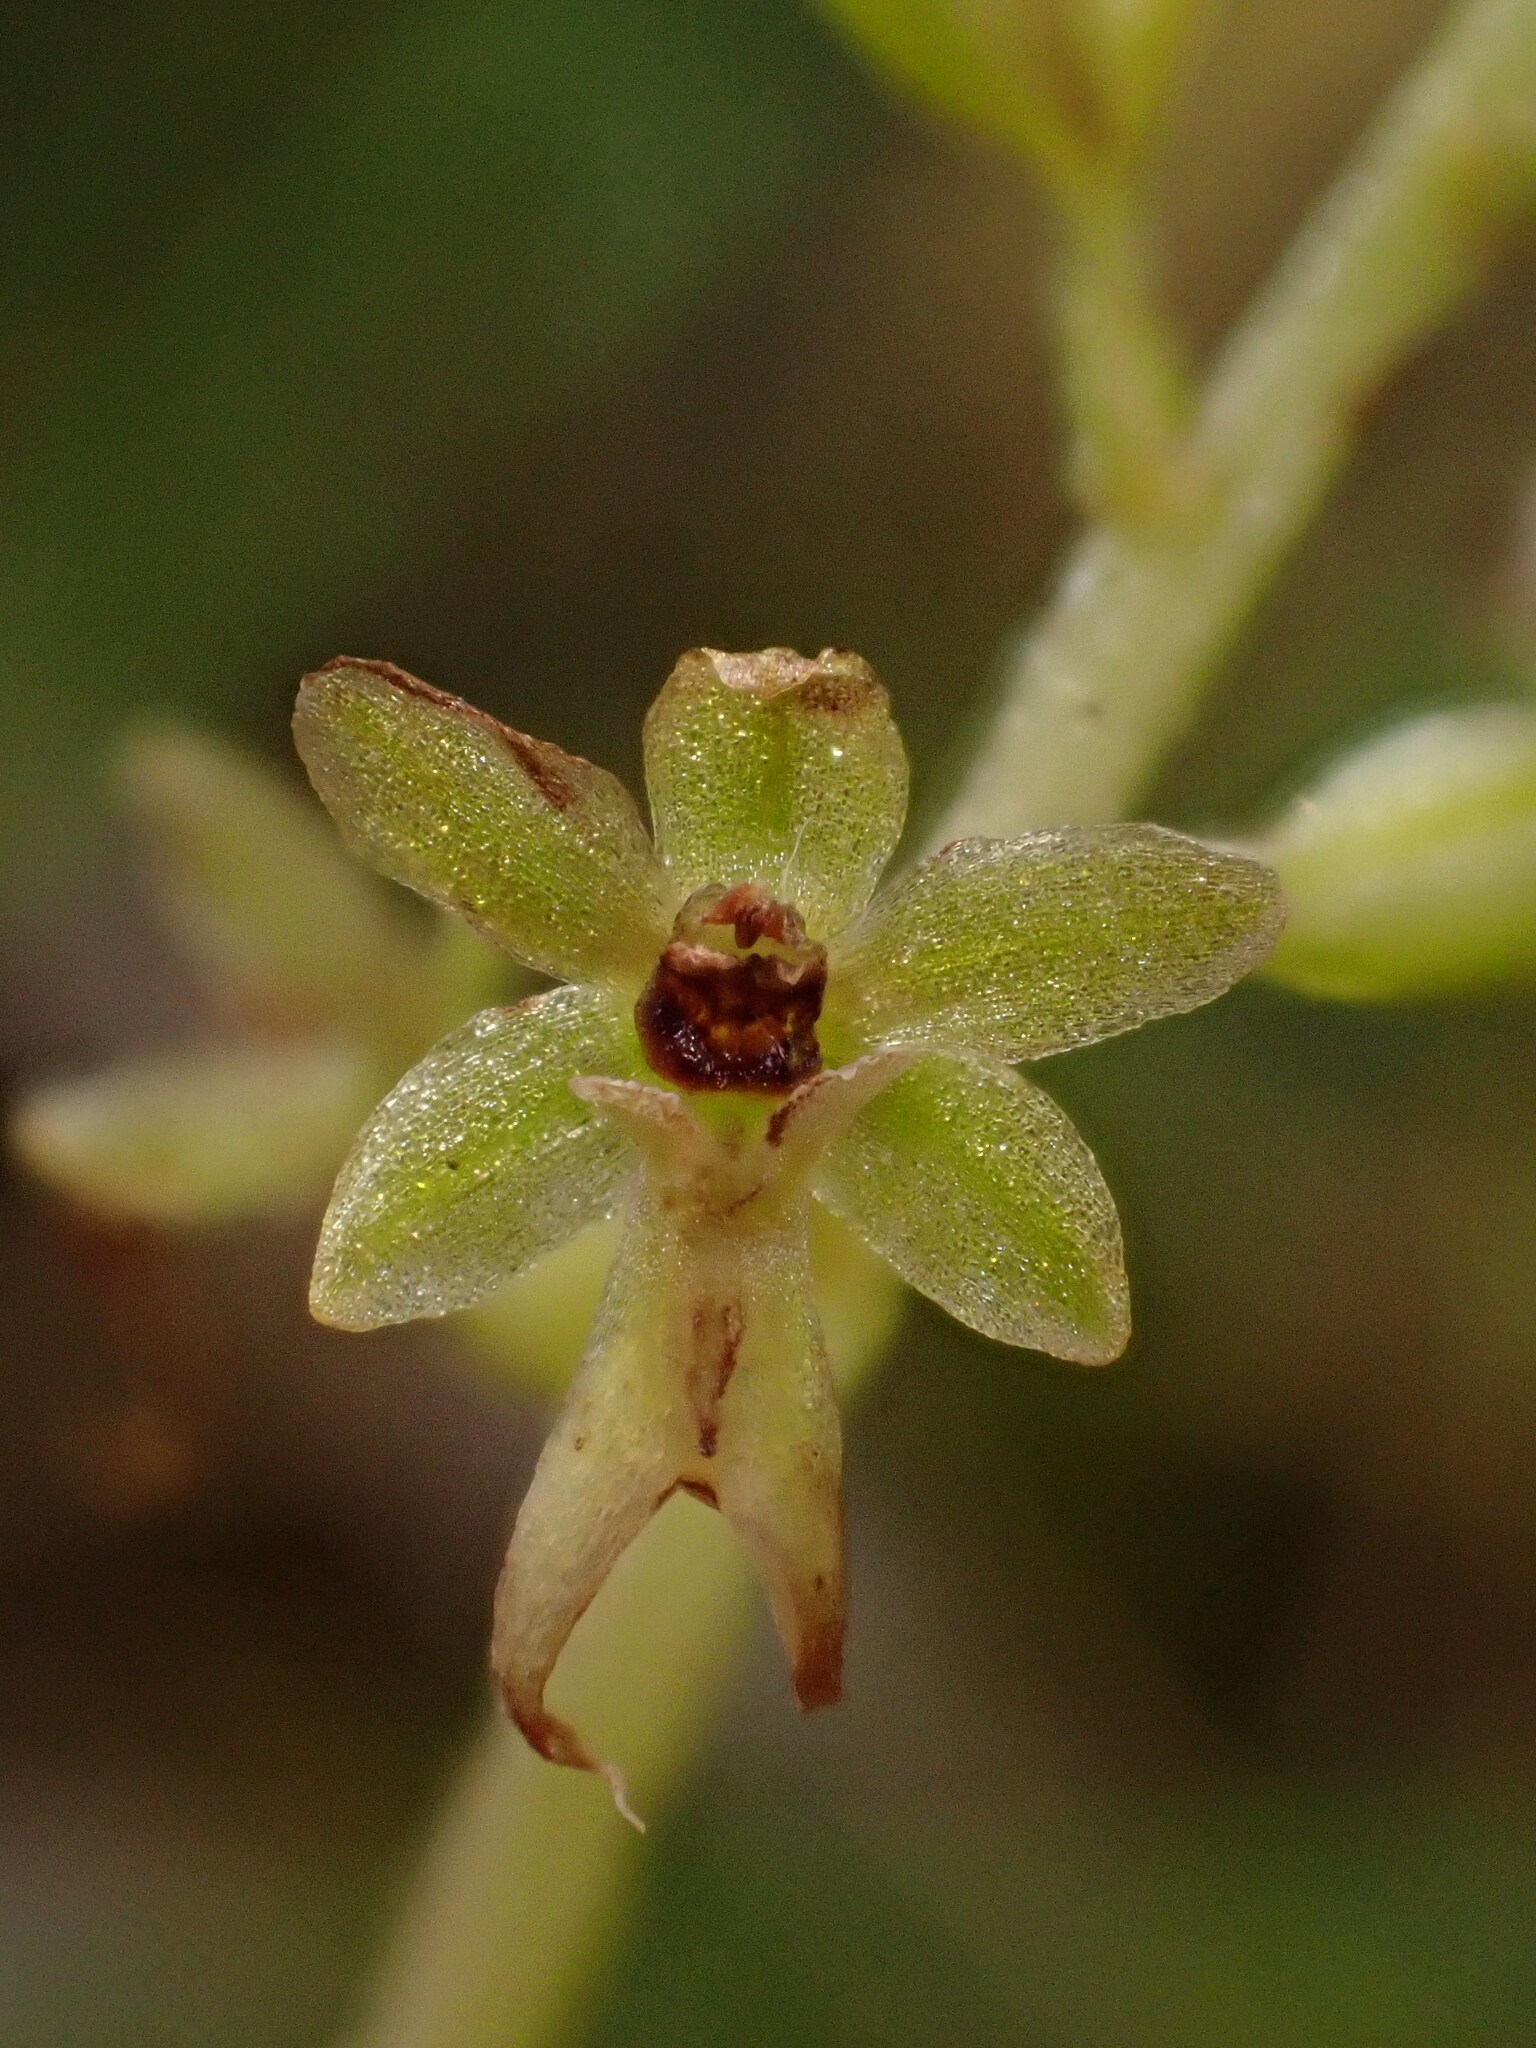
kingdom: Plantae
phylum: Tracheophyta
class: Liliopsida
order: Asparagales
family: Orchidaceae
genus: Neottia
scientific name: Neottia cordata
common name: Lesser twayblade
